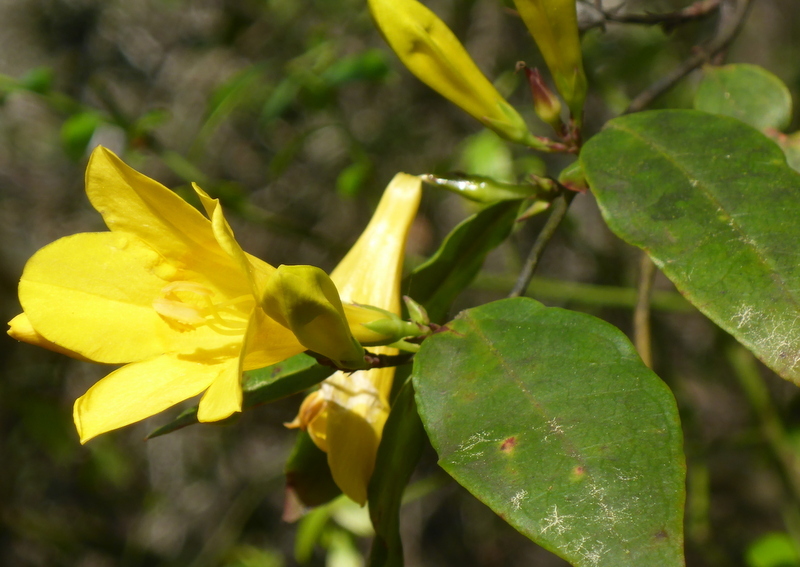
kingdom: Plantae
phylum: Tracheophyta
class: Magnoliopsida
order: Gentianales
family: Gelsemiaceae
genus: Gelsemium
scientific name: Gelsemium rankinii
